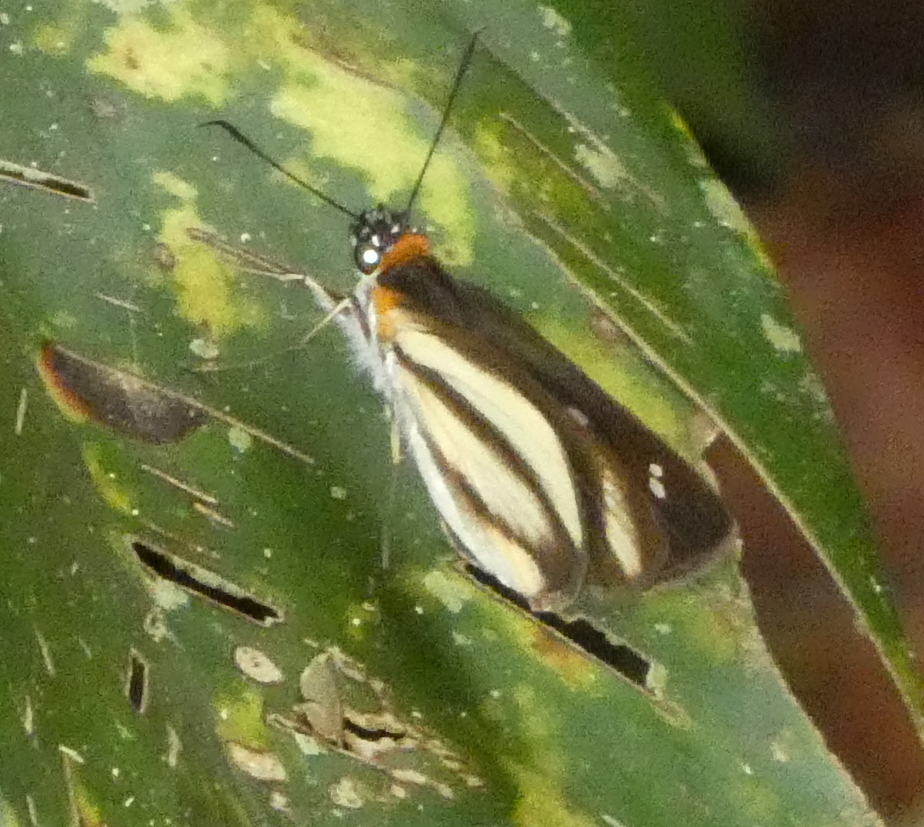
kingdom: Animalia
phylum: Arthropoda
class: Insecta
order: Lepidoptera
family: Hesperiidae
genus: Vettius
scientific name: Vettius marcus
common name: Marcus skipper
